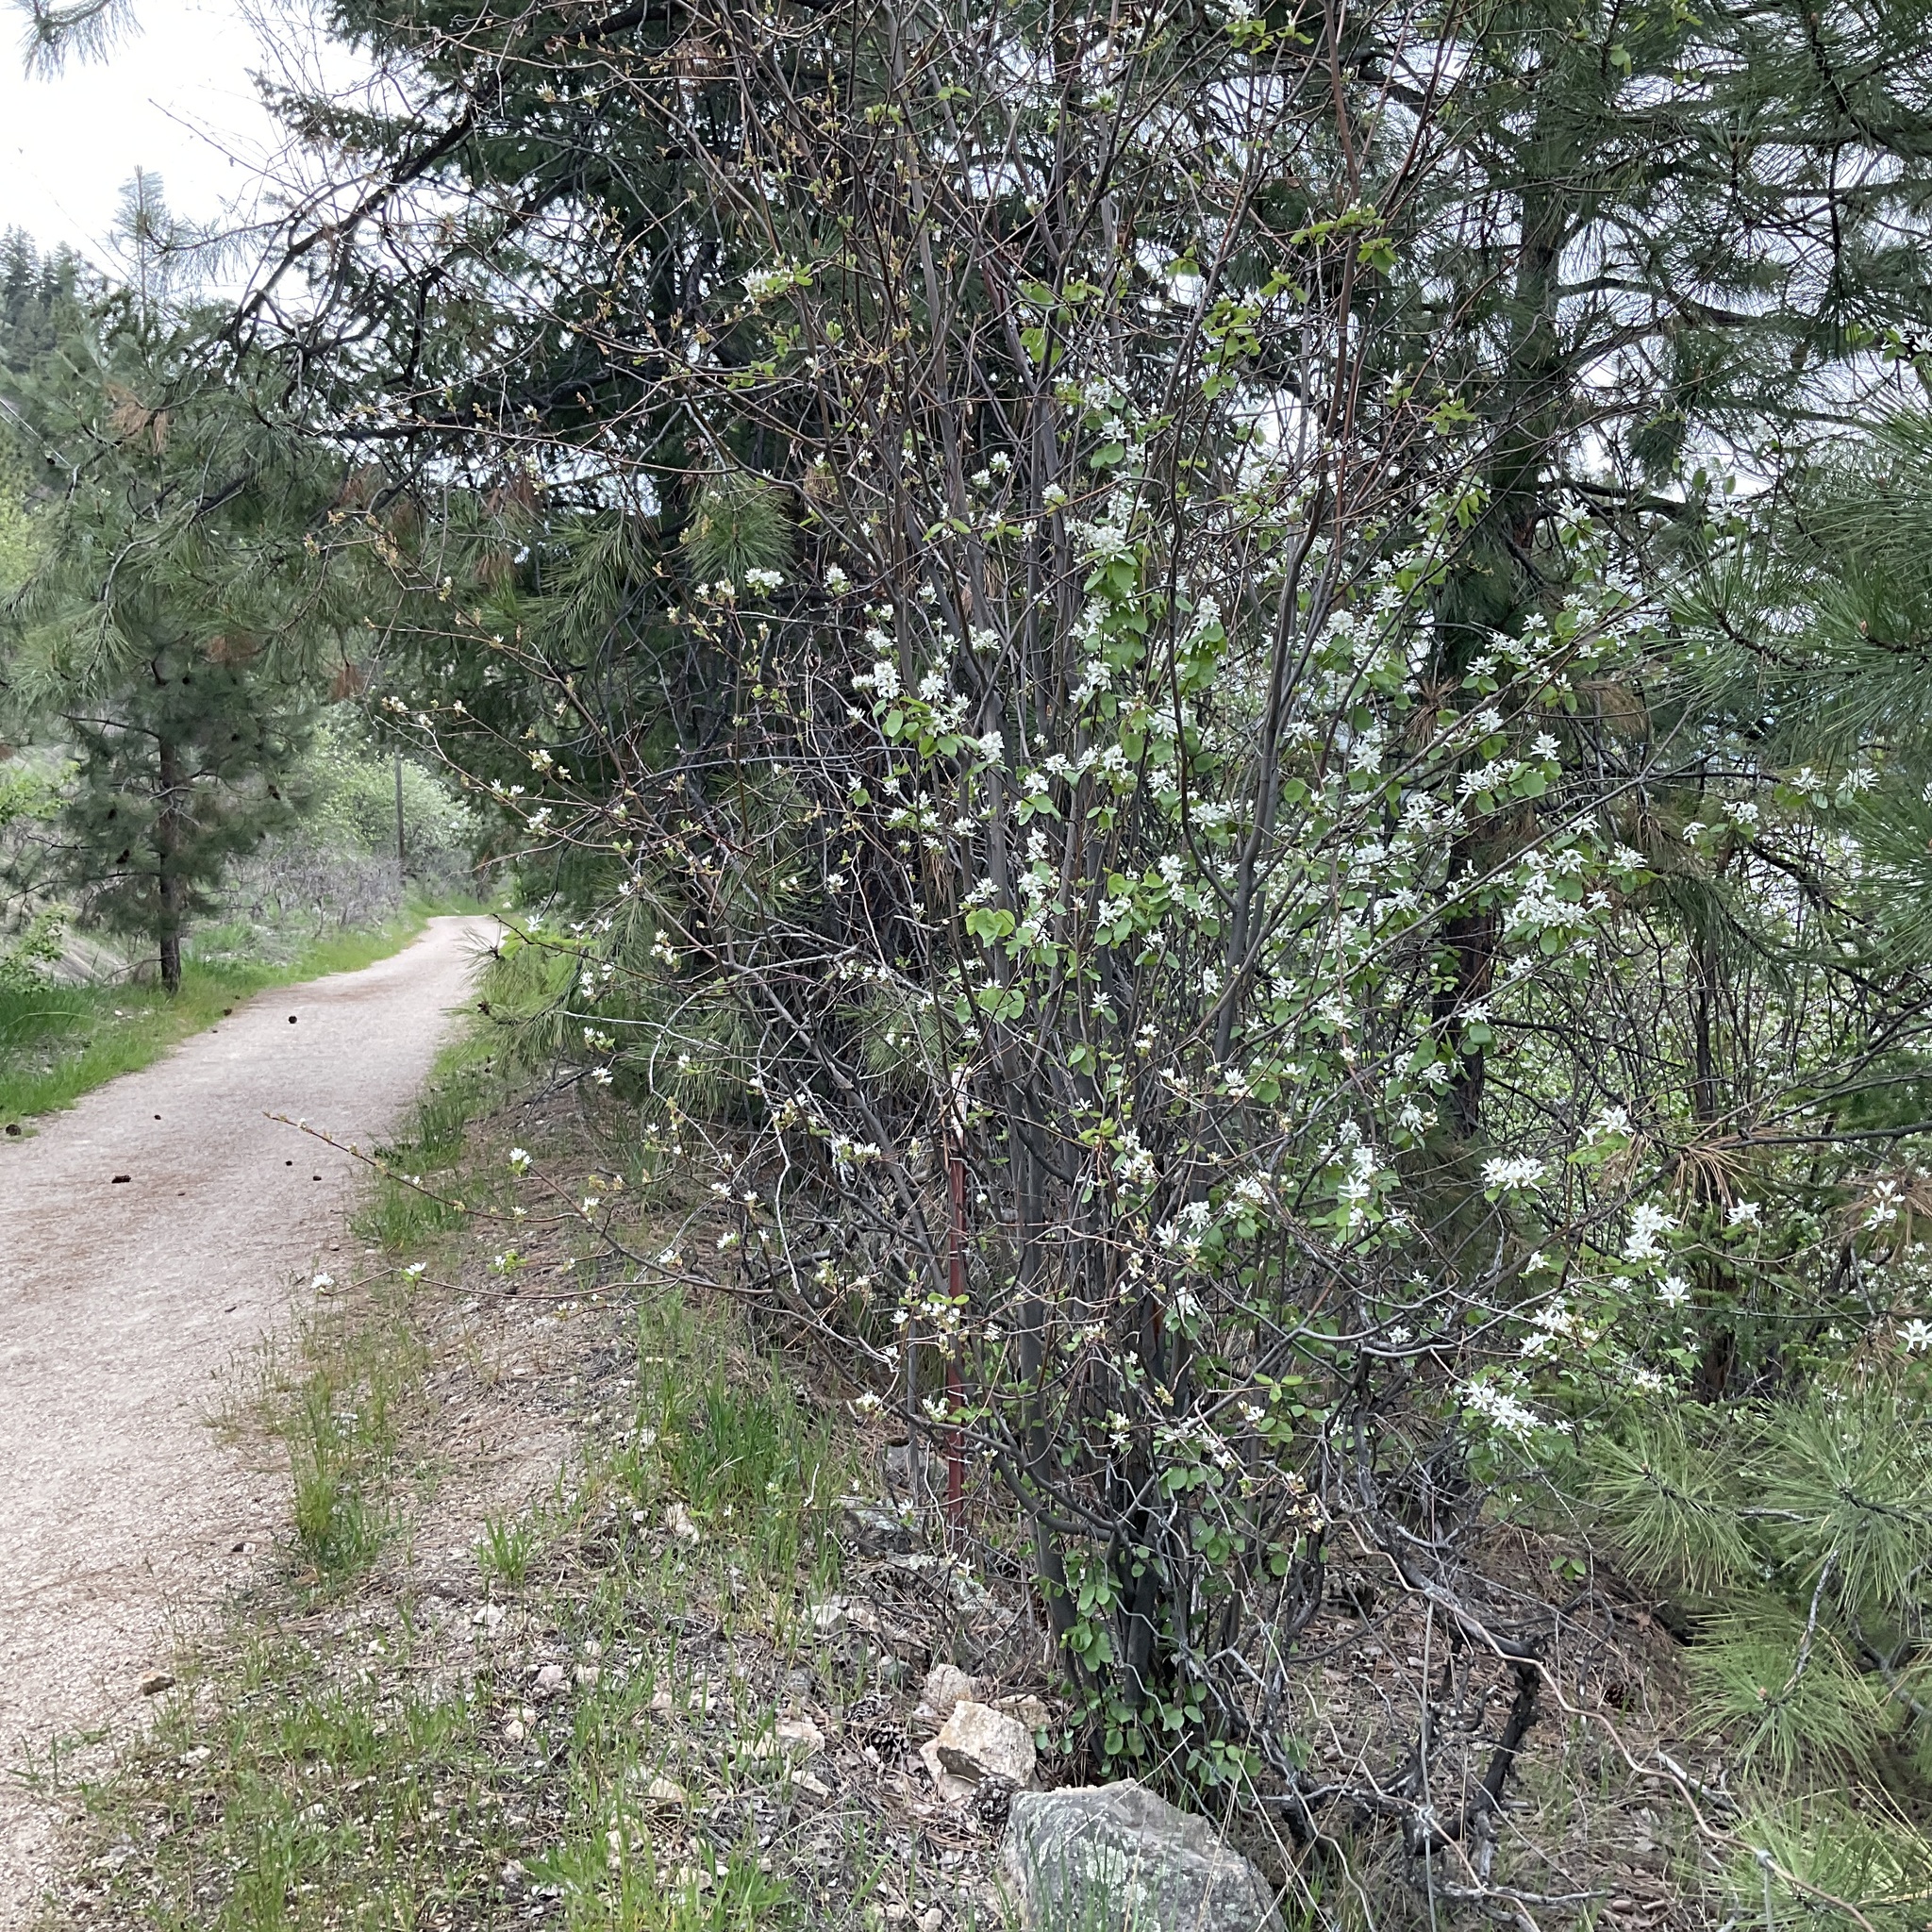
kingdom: Plantae
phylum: Tracheophyta
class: Magnoliopsida
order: Rosales
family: Rosaceae
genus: Amelanchier
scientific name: Amelanchier alnifolia
